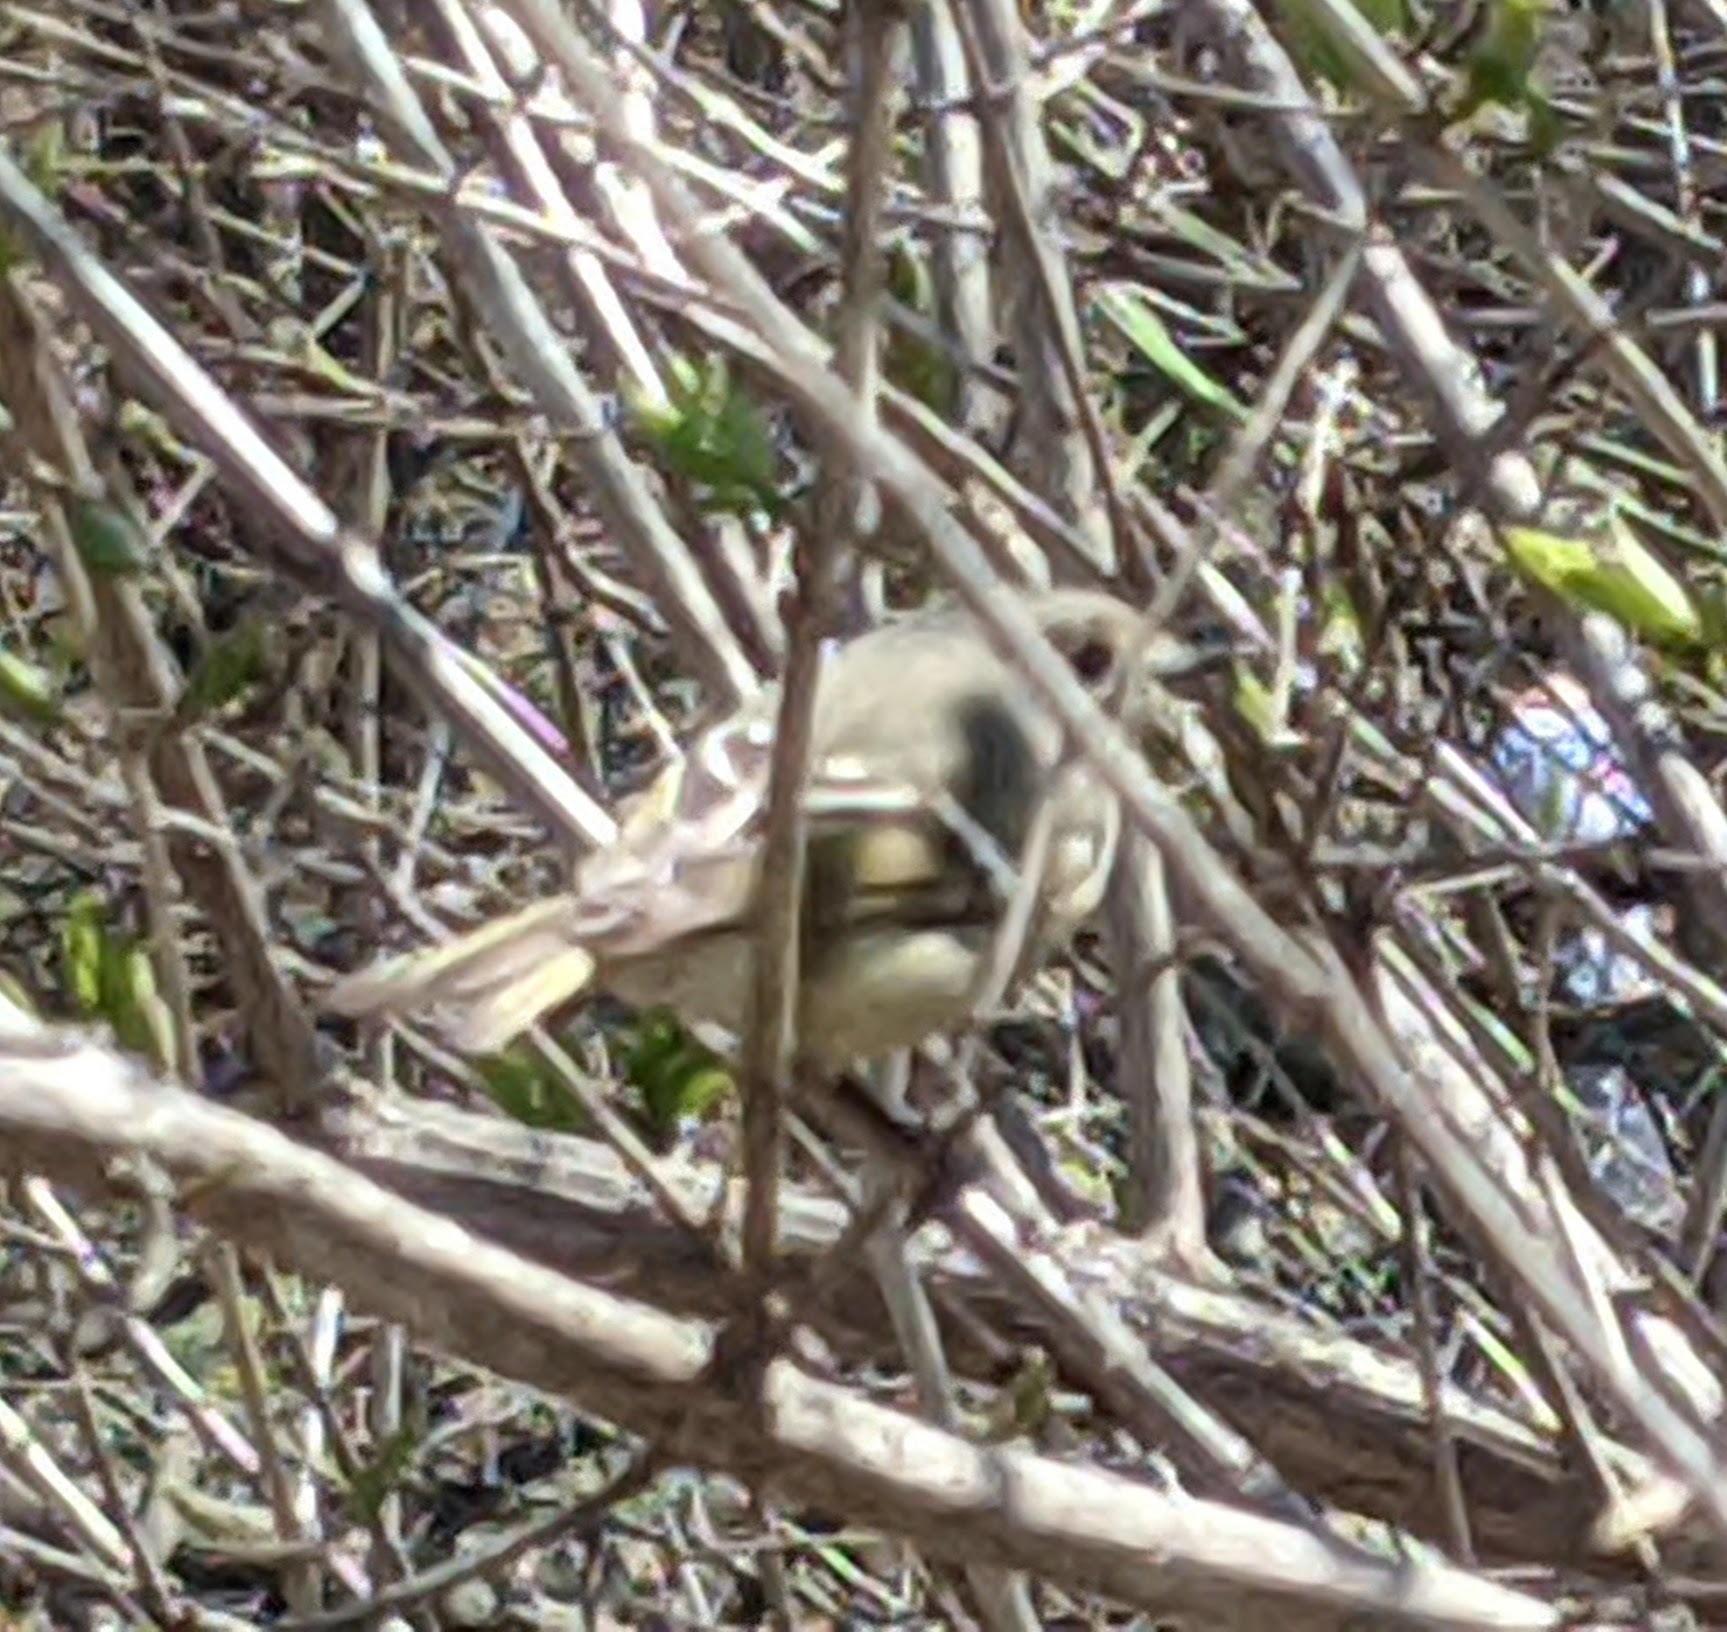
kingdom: Animalia
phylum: Chordata
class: Aves
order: Passeriformes
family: Regulidae
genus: Regulus
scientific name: Regulus calendula
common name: Ruby-crowned kinglet
